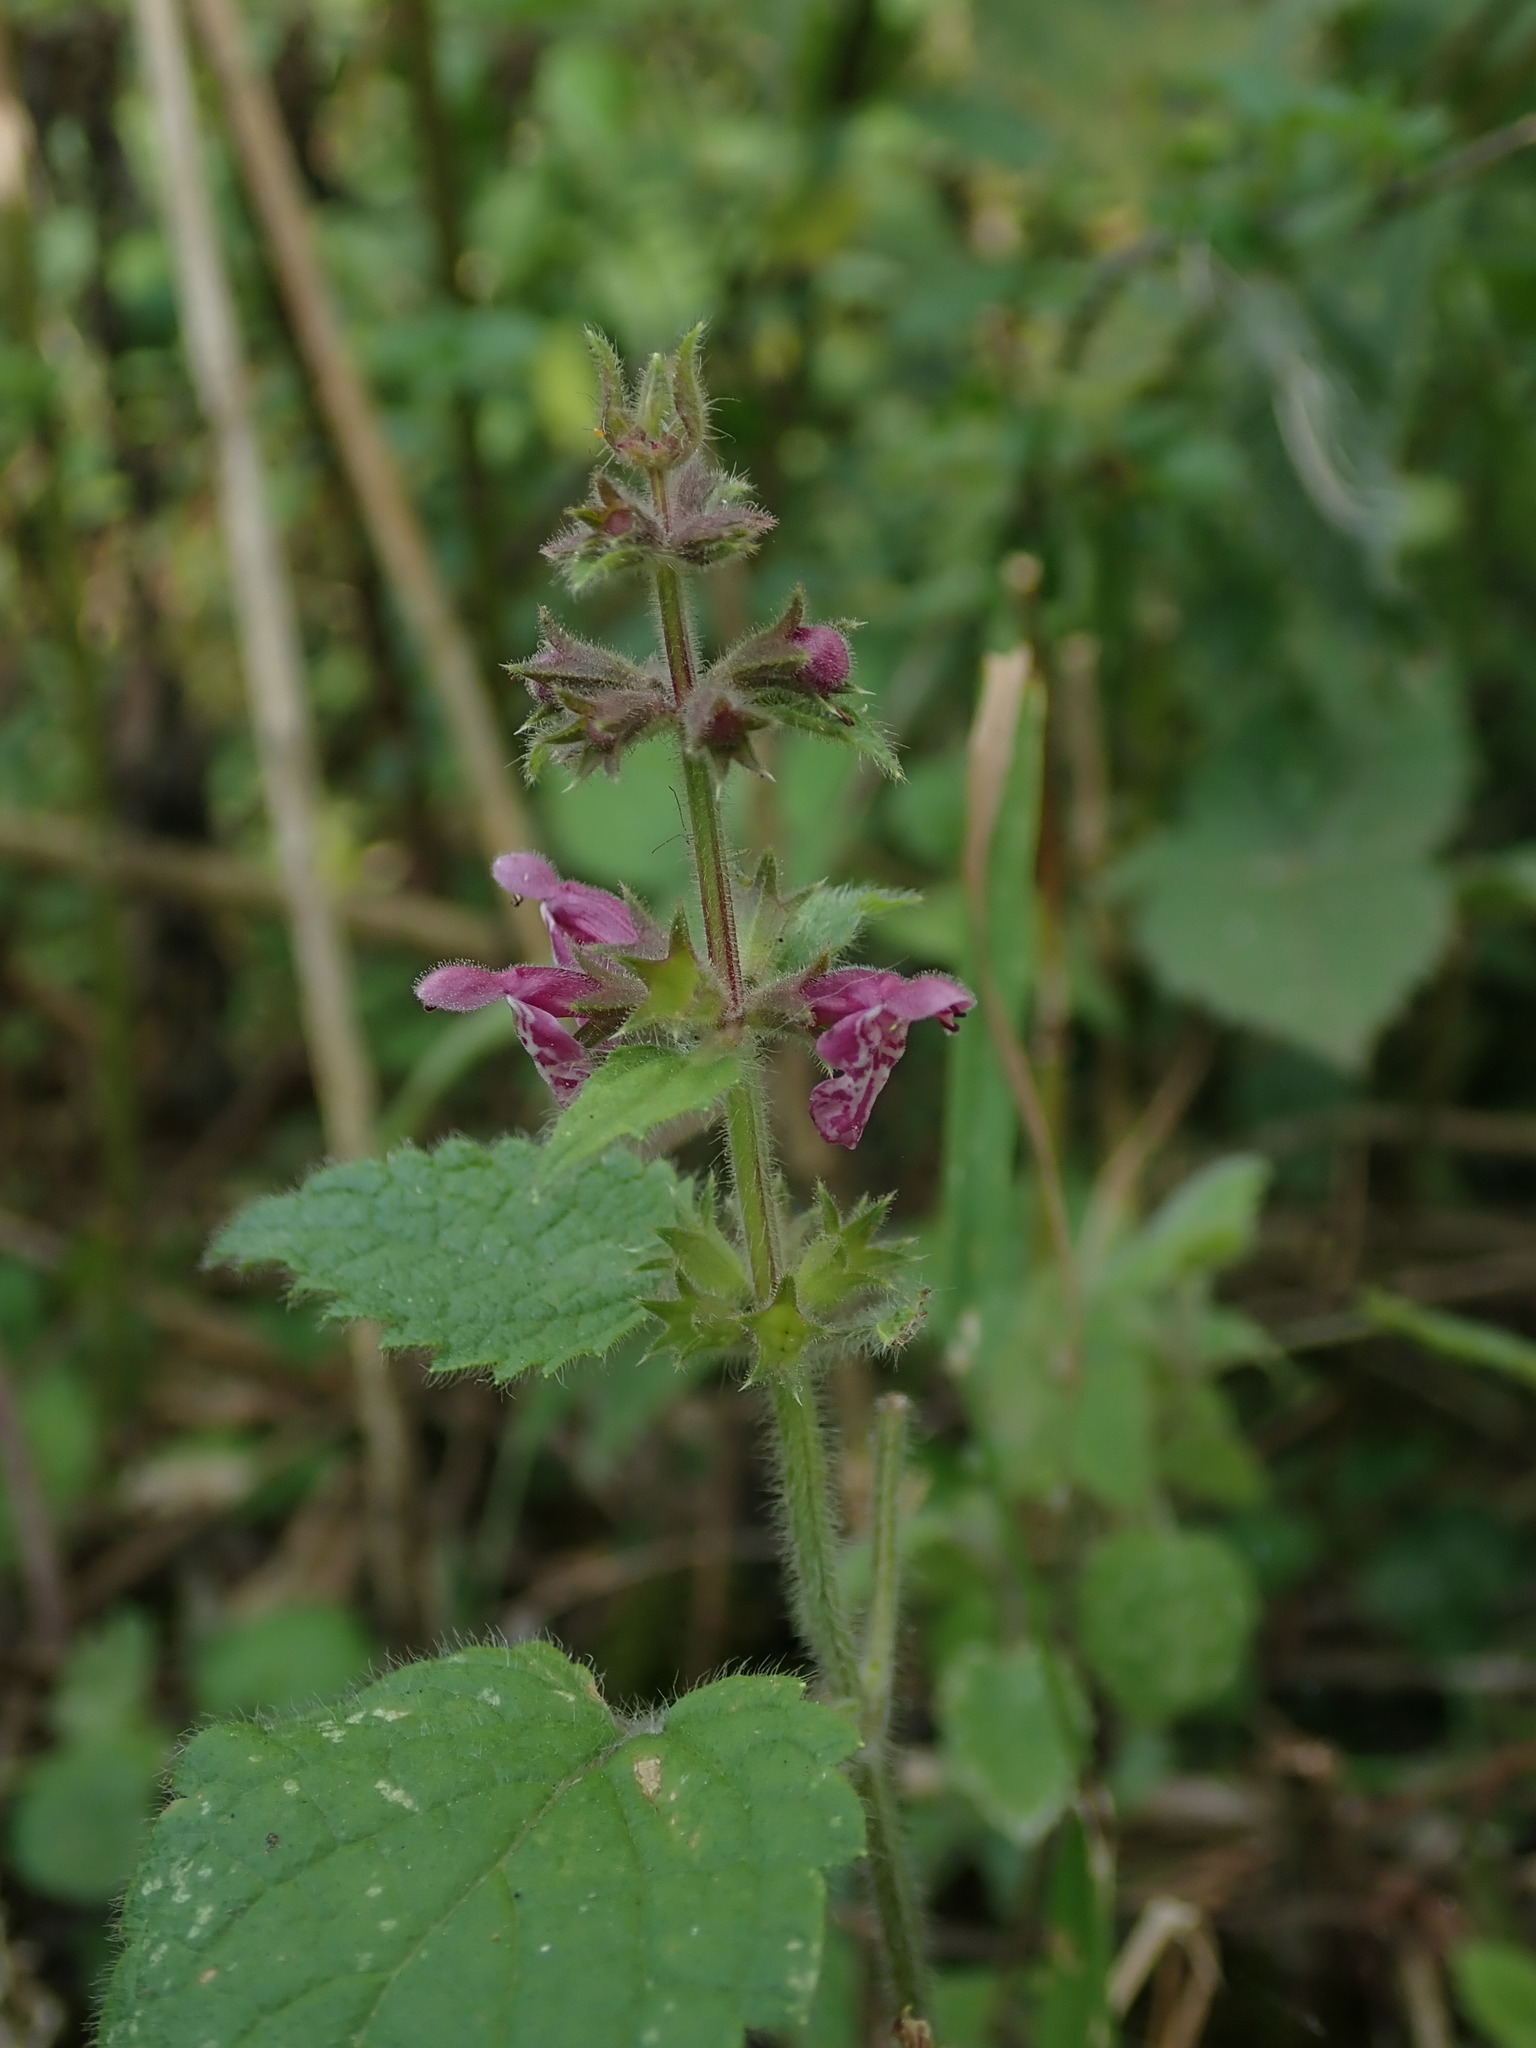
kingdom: Plantae
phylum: Tracheophyta
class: Magnoliopsida
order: Lamiales
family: Lamiaceae
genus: Stachys
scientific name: Stachys sylvatica
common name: Hedge woundwort
